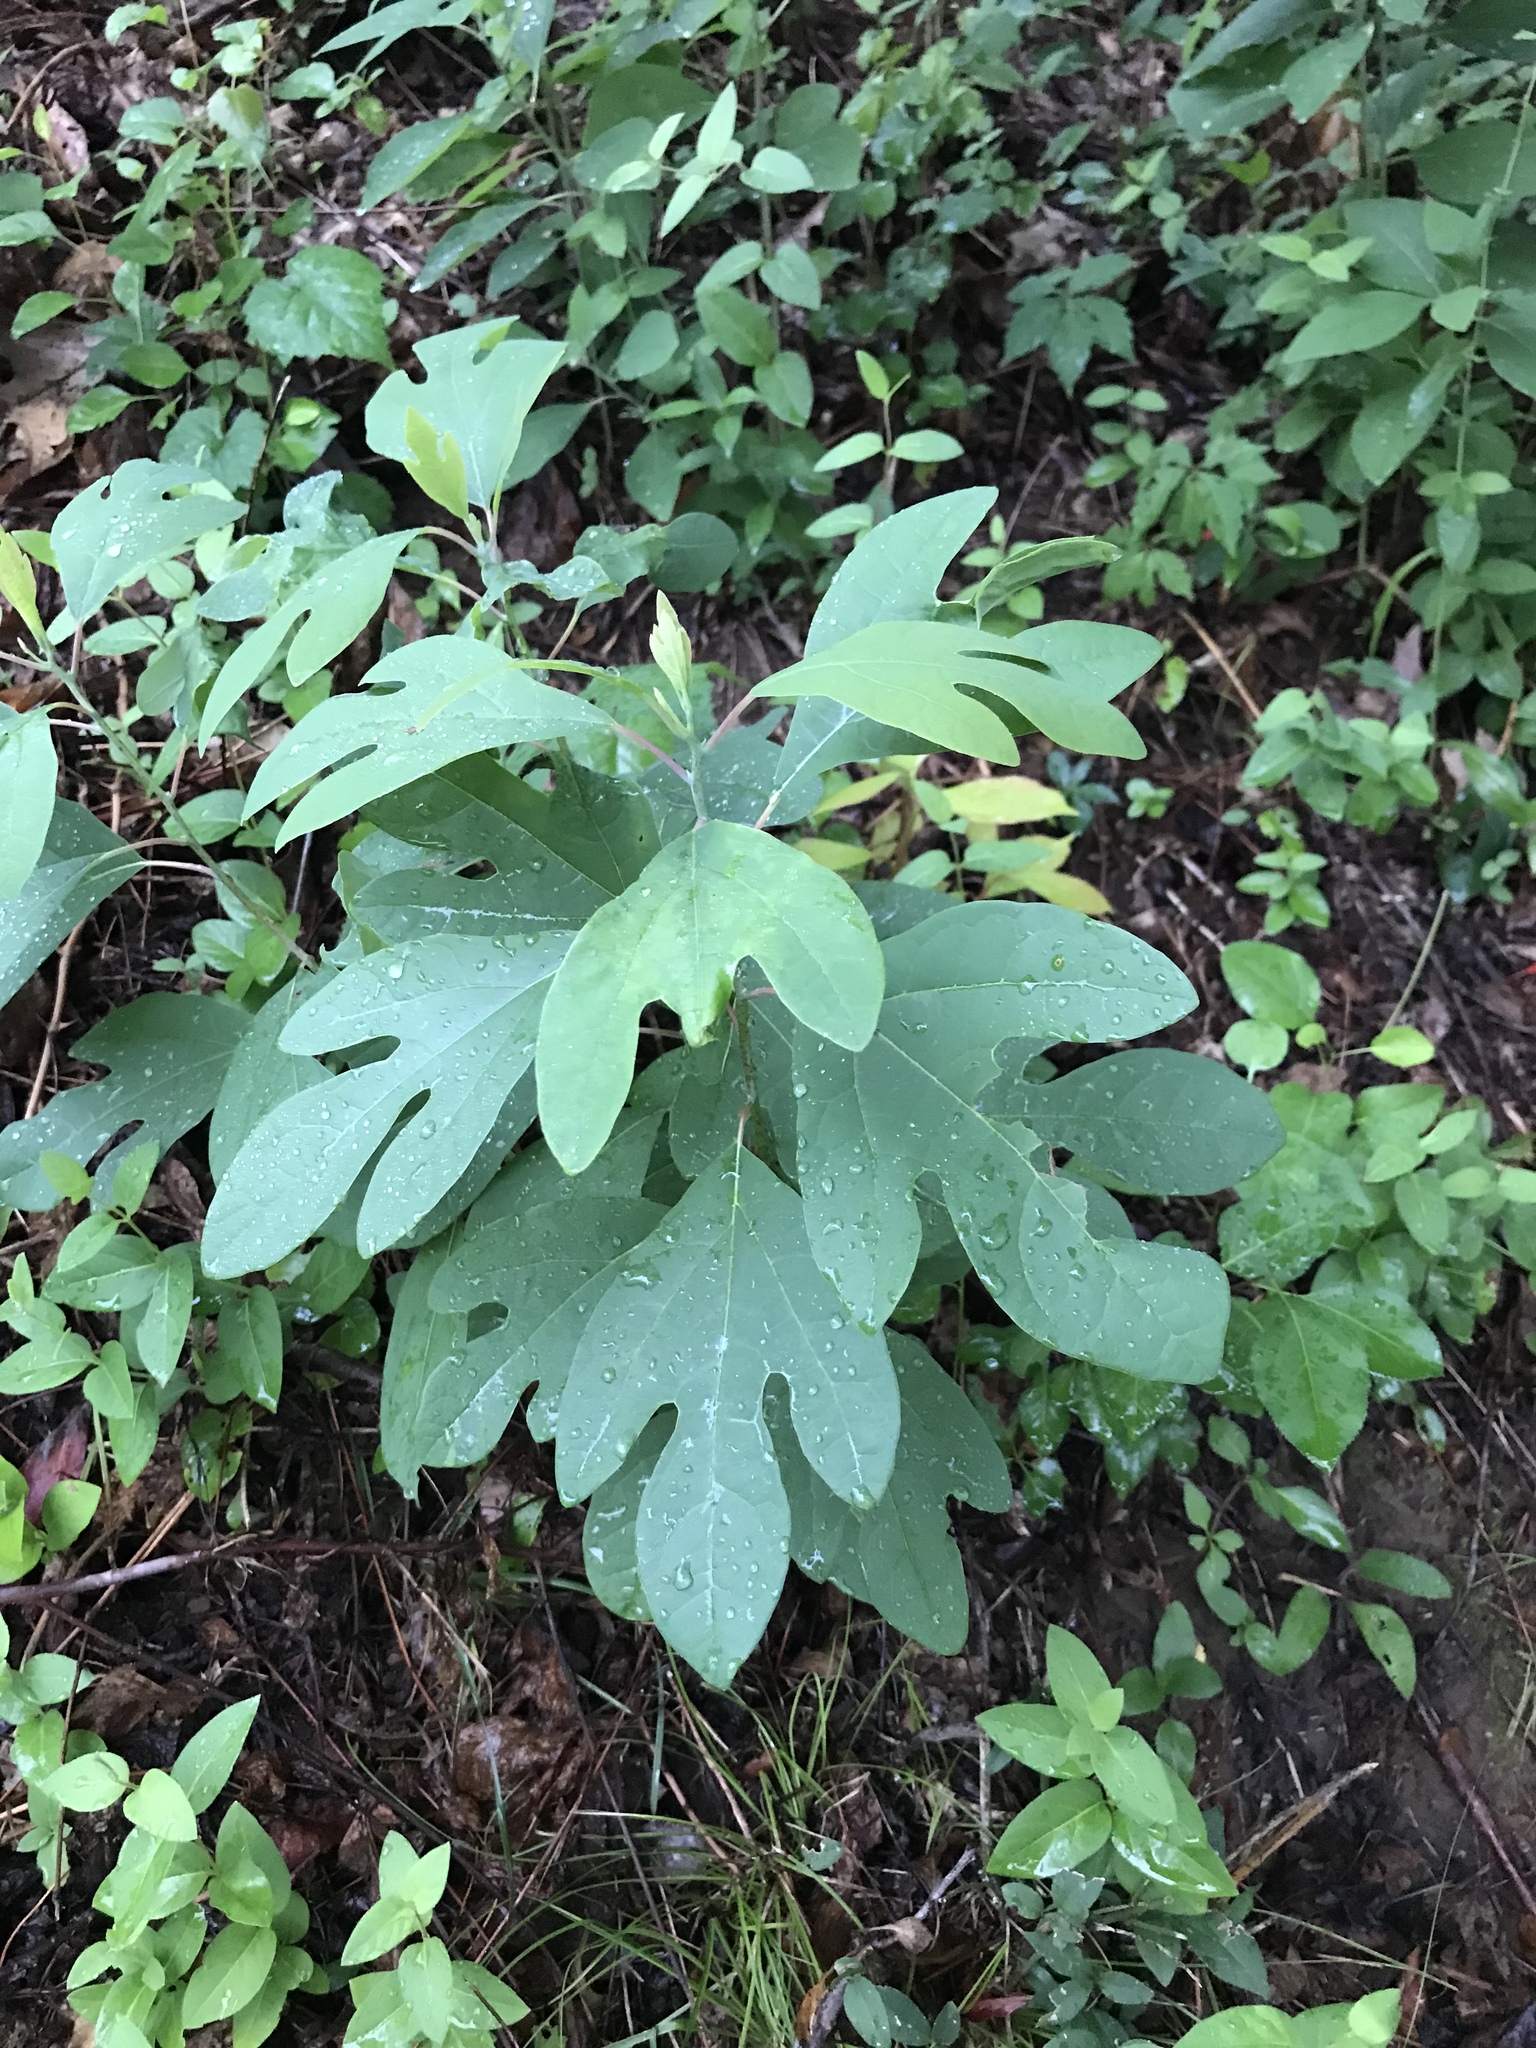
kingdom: Plantae
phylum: Tracheophyta
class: Magnoliopsida
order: Laurales
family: Lauraceae
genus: Sassafras
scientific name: Sassafras albidum
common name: Sassafras
